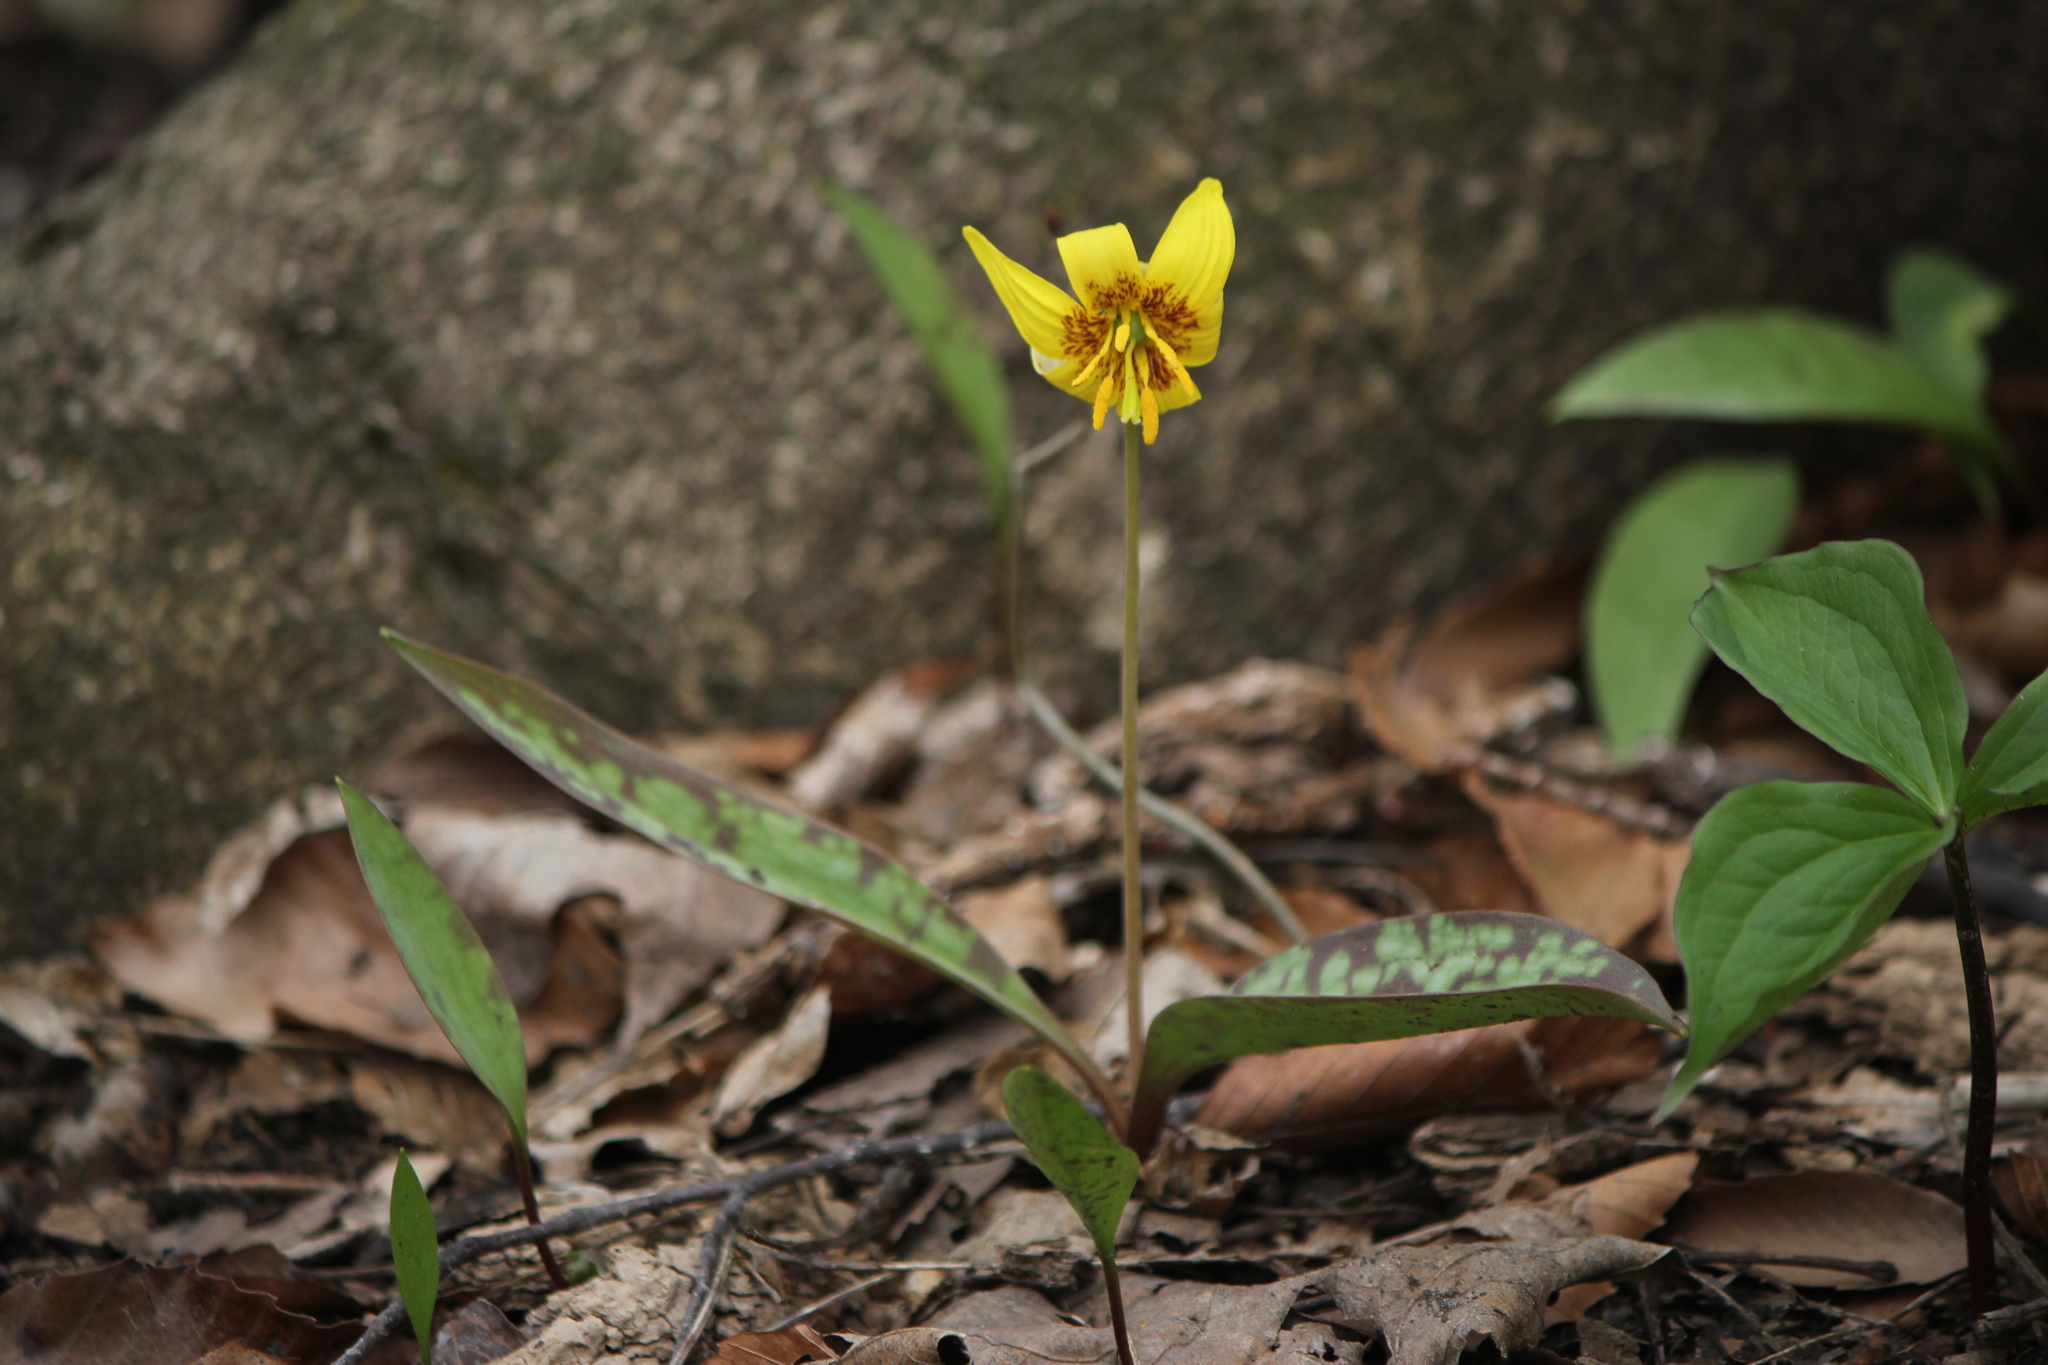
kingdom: Plantae
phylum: Tracheophyta
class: Liliopsida
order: Liliales
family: Liliaceae
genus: Erythronium
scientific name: Erythronium americanum
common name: Yellow adder's-tongue
